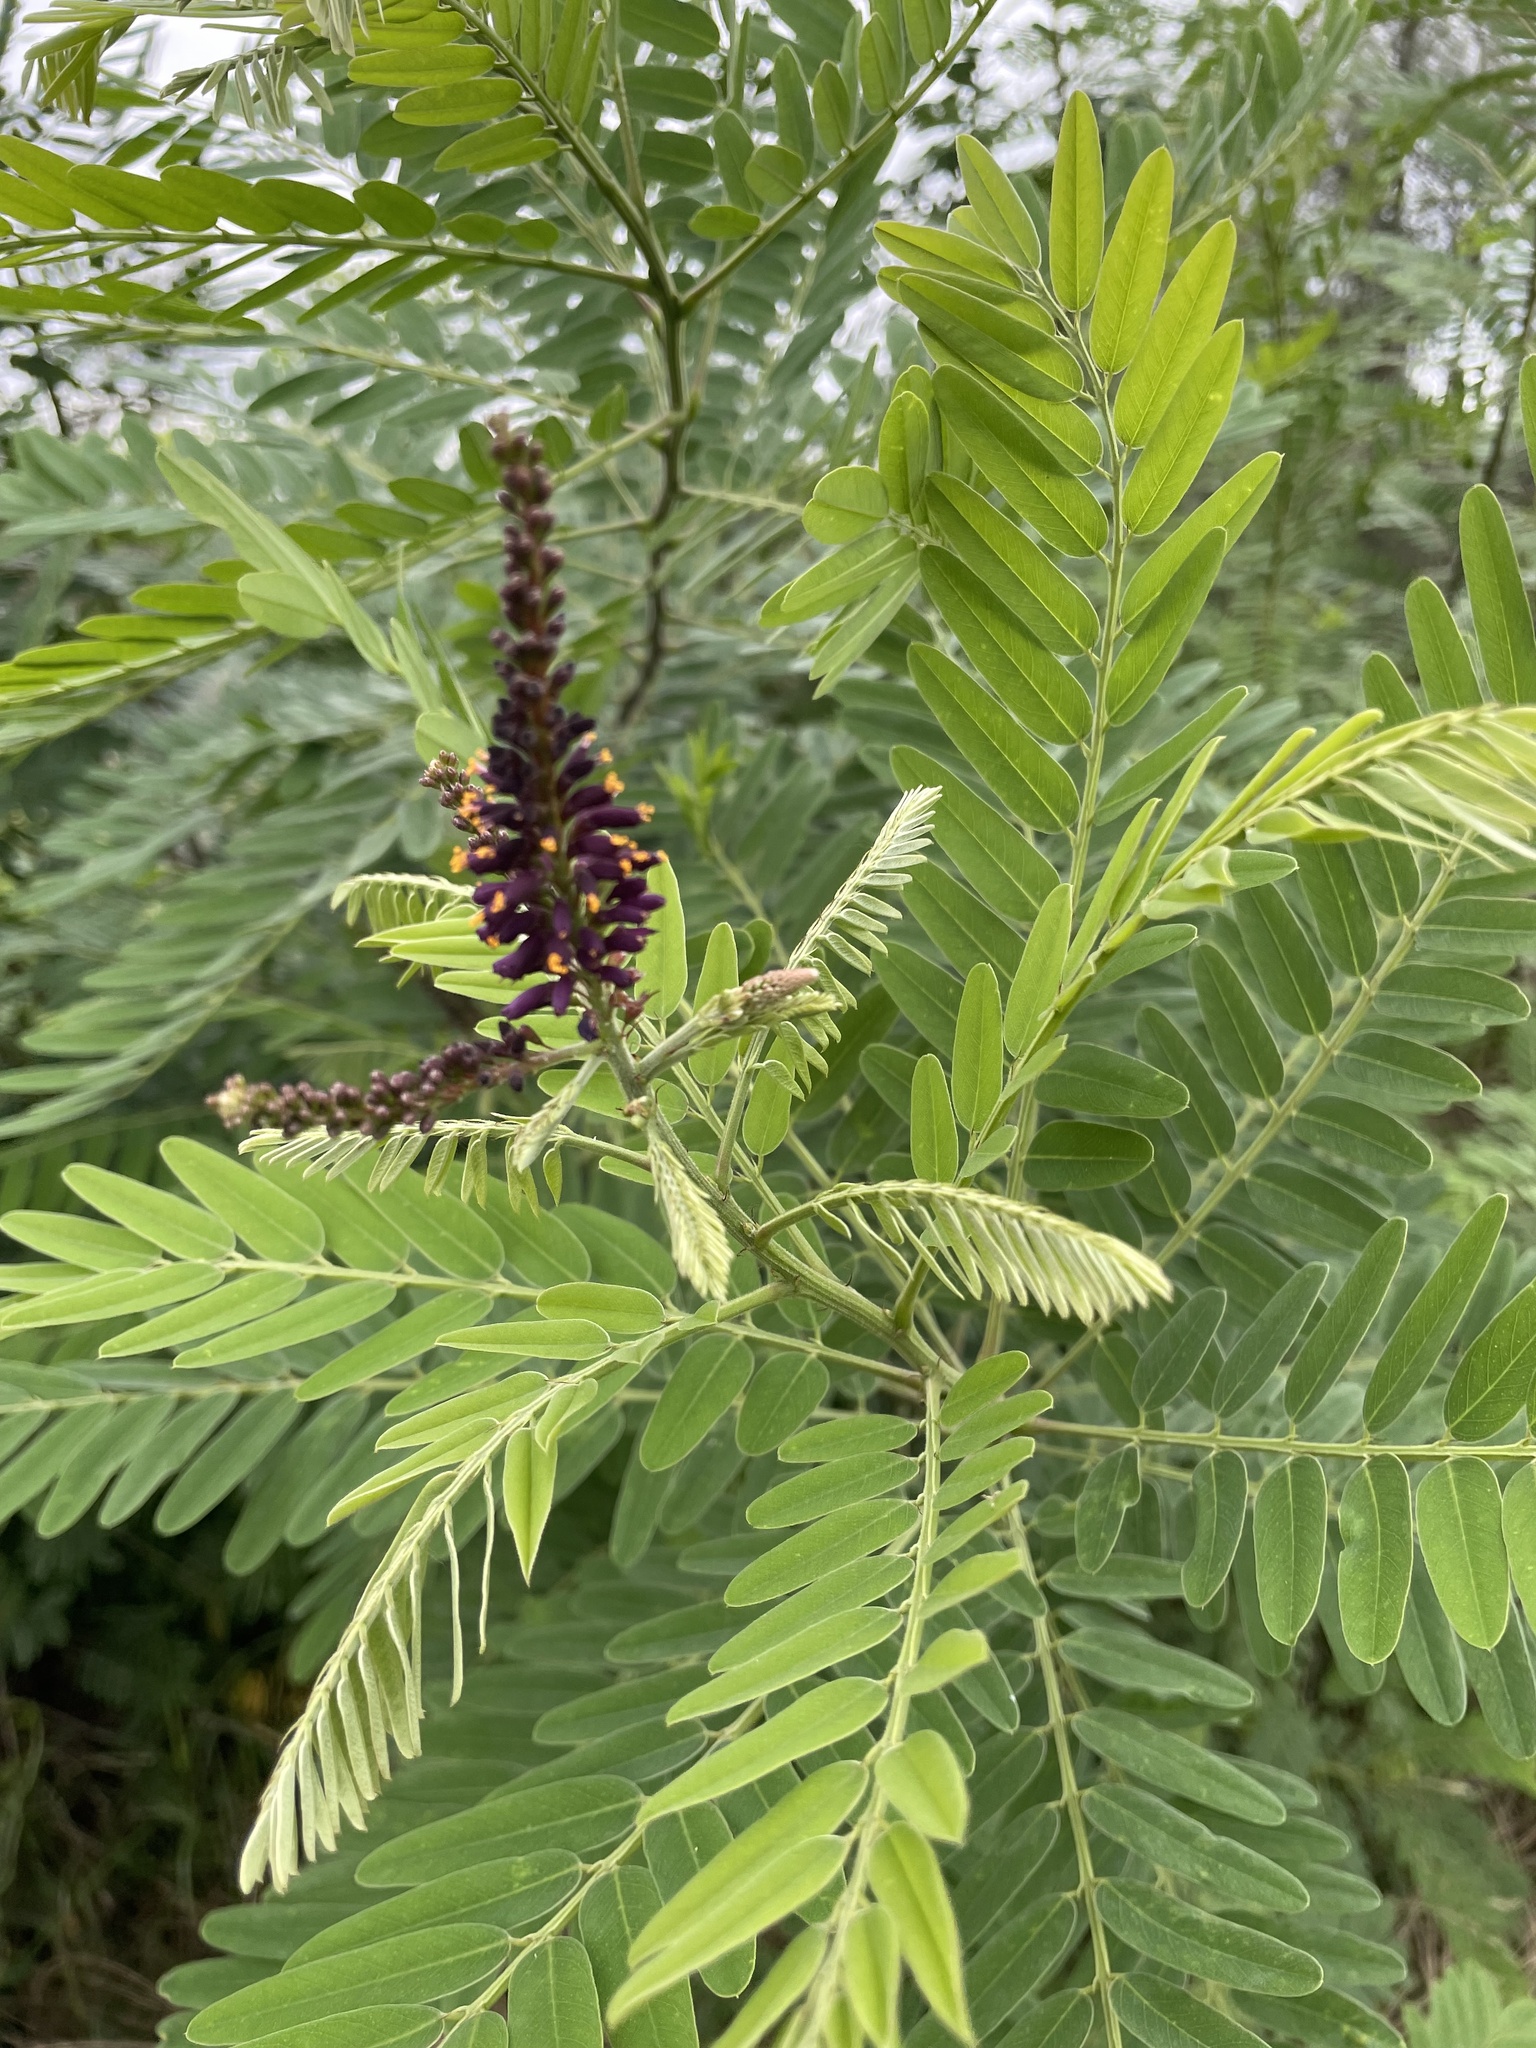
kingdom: Plantae
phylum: Tracheophyta
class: Magnoliopsida
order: Fabales
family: Fabaceae
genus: Amorpha
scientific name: Amorpha fruticosa
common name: False indigo
